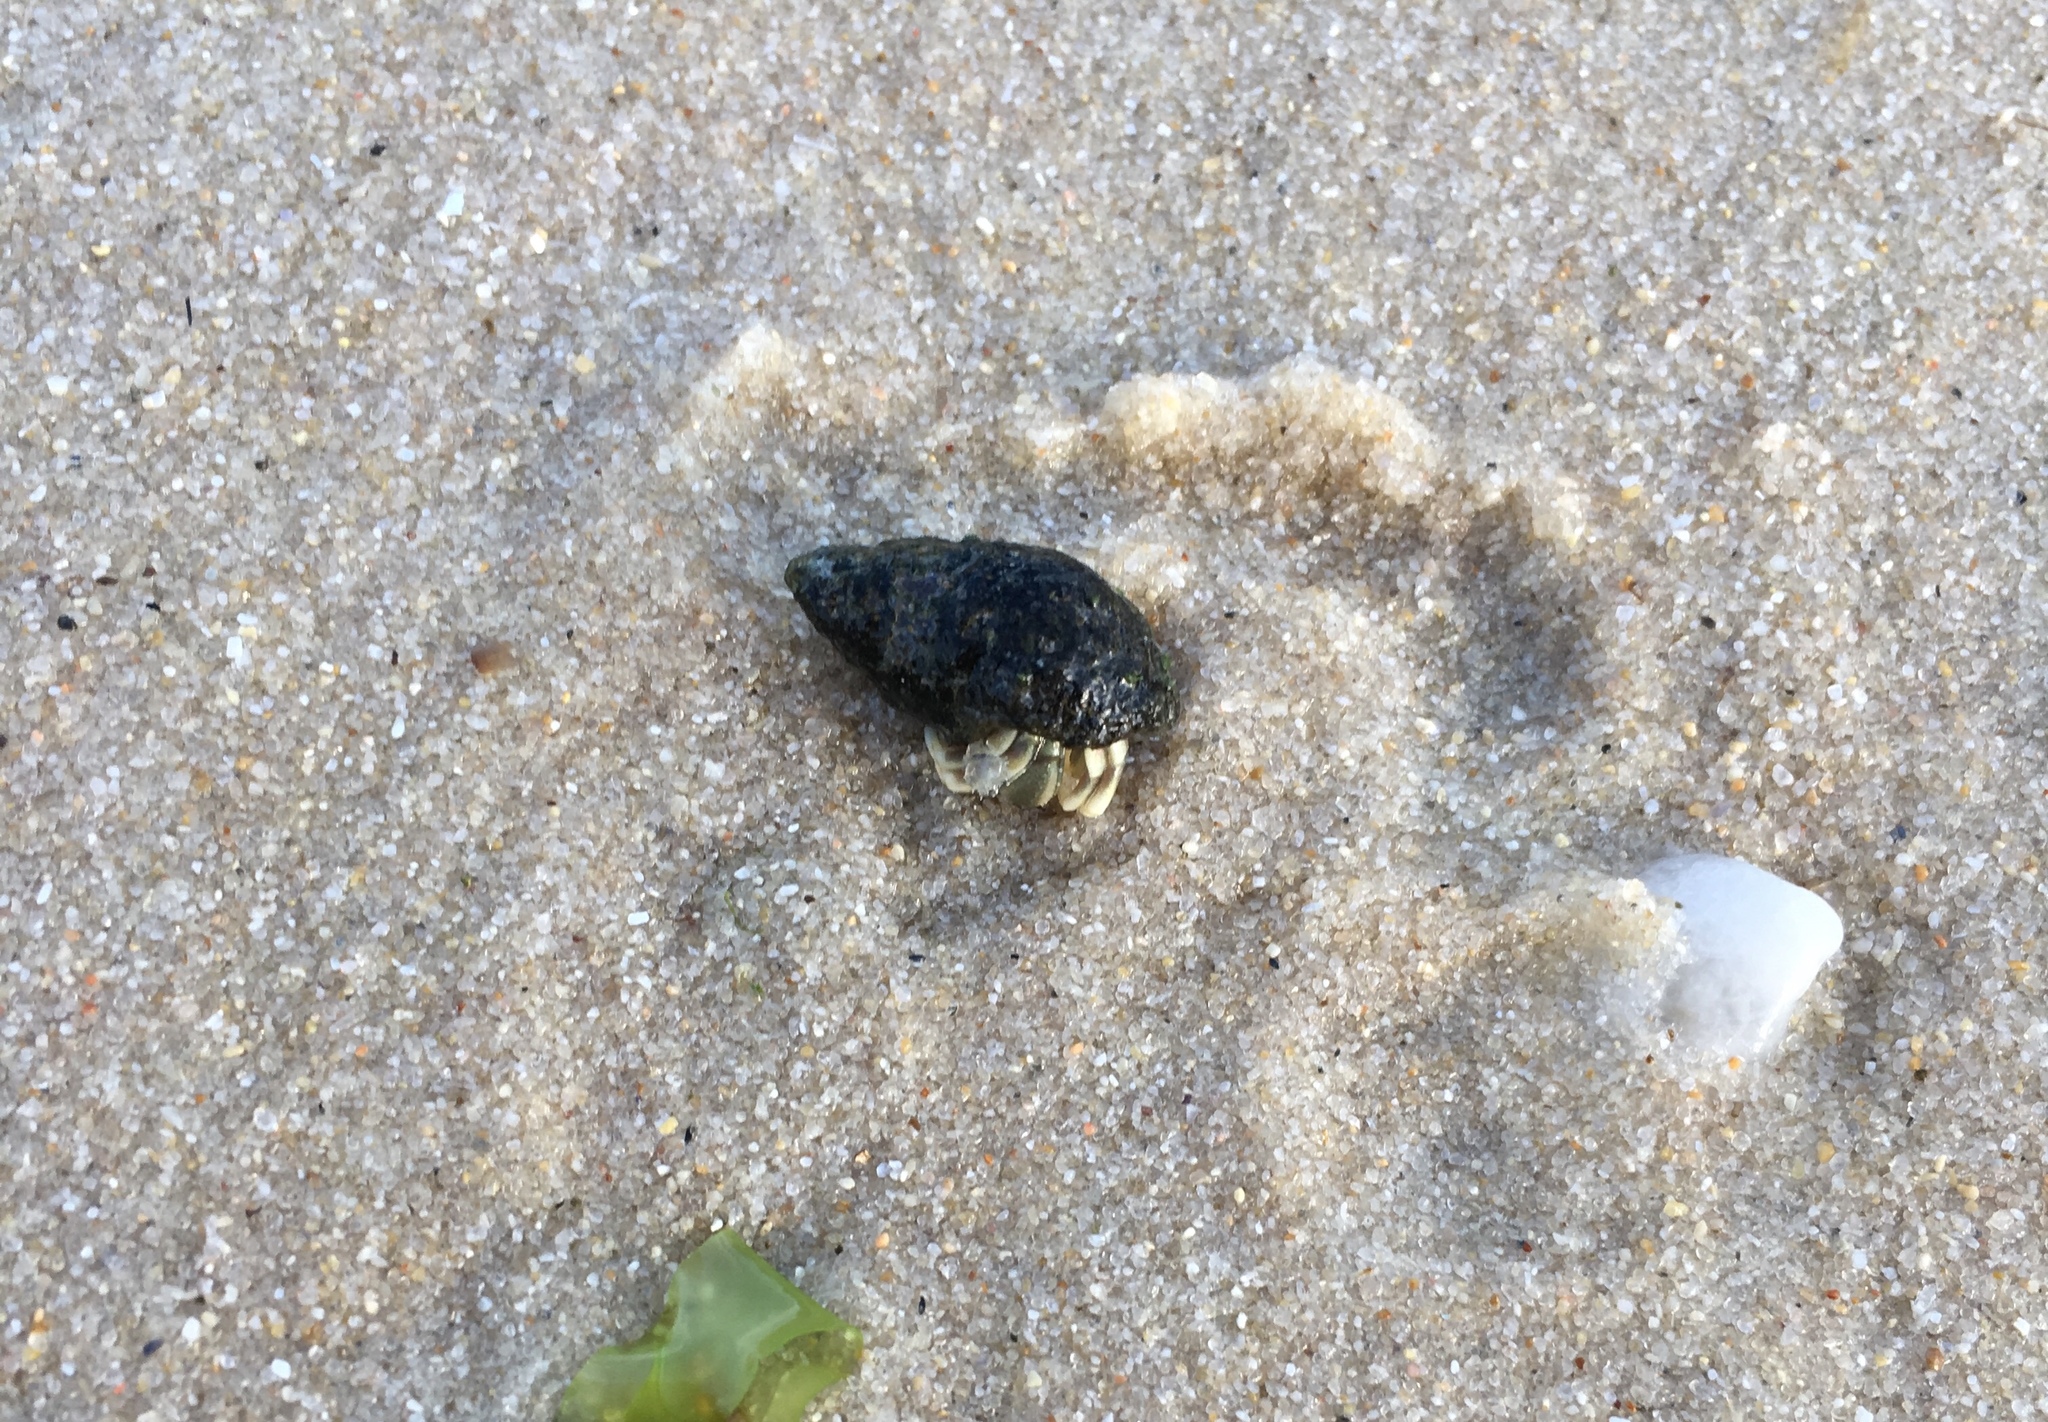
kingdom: Animalia
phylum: Arthropoda
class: Malacostraca
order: Decapoda
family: Paguridae
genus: Pagurus
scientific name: Pagurus longicarpus
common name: Long-armed hermit crab
